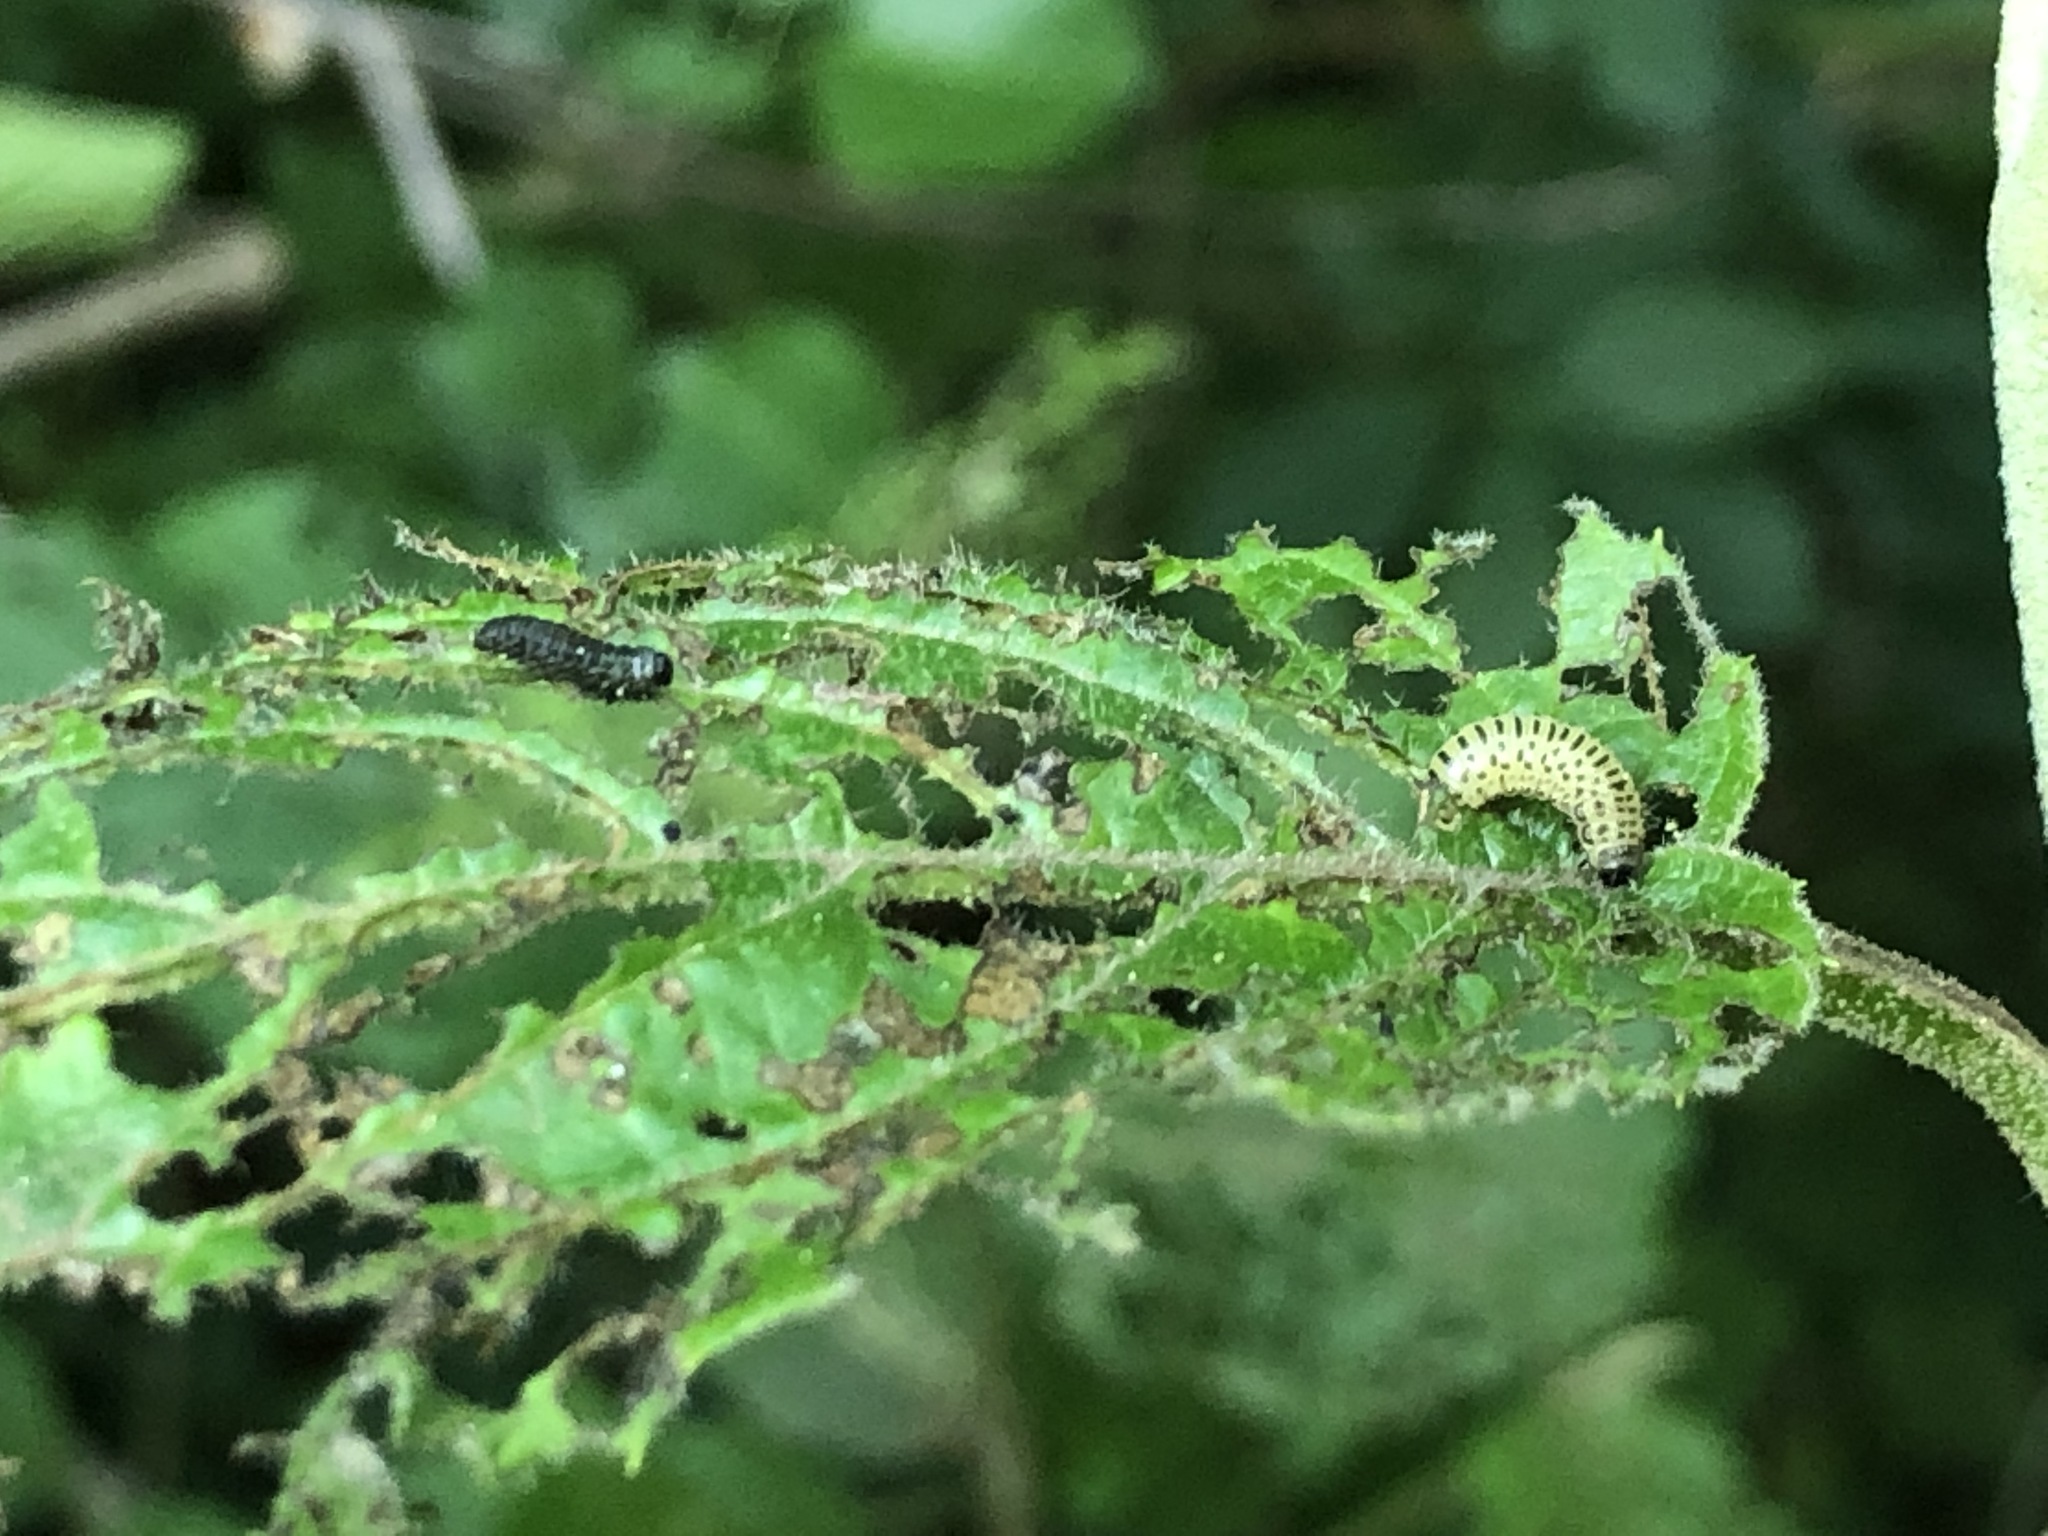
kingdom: Animalia
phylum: Arthropoda
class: Insecta
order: Coleoptera
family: Chrysomelidae
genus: Pyrrhalta
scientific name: Pyrrhalta viburni
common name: Guelder-rose leaf beetle
